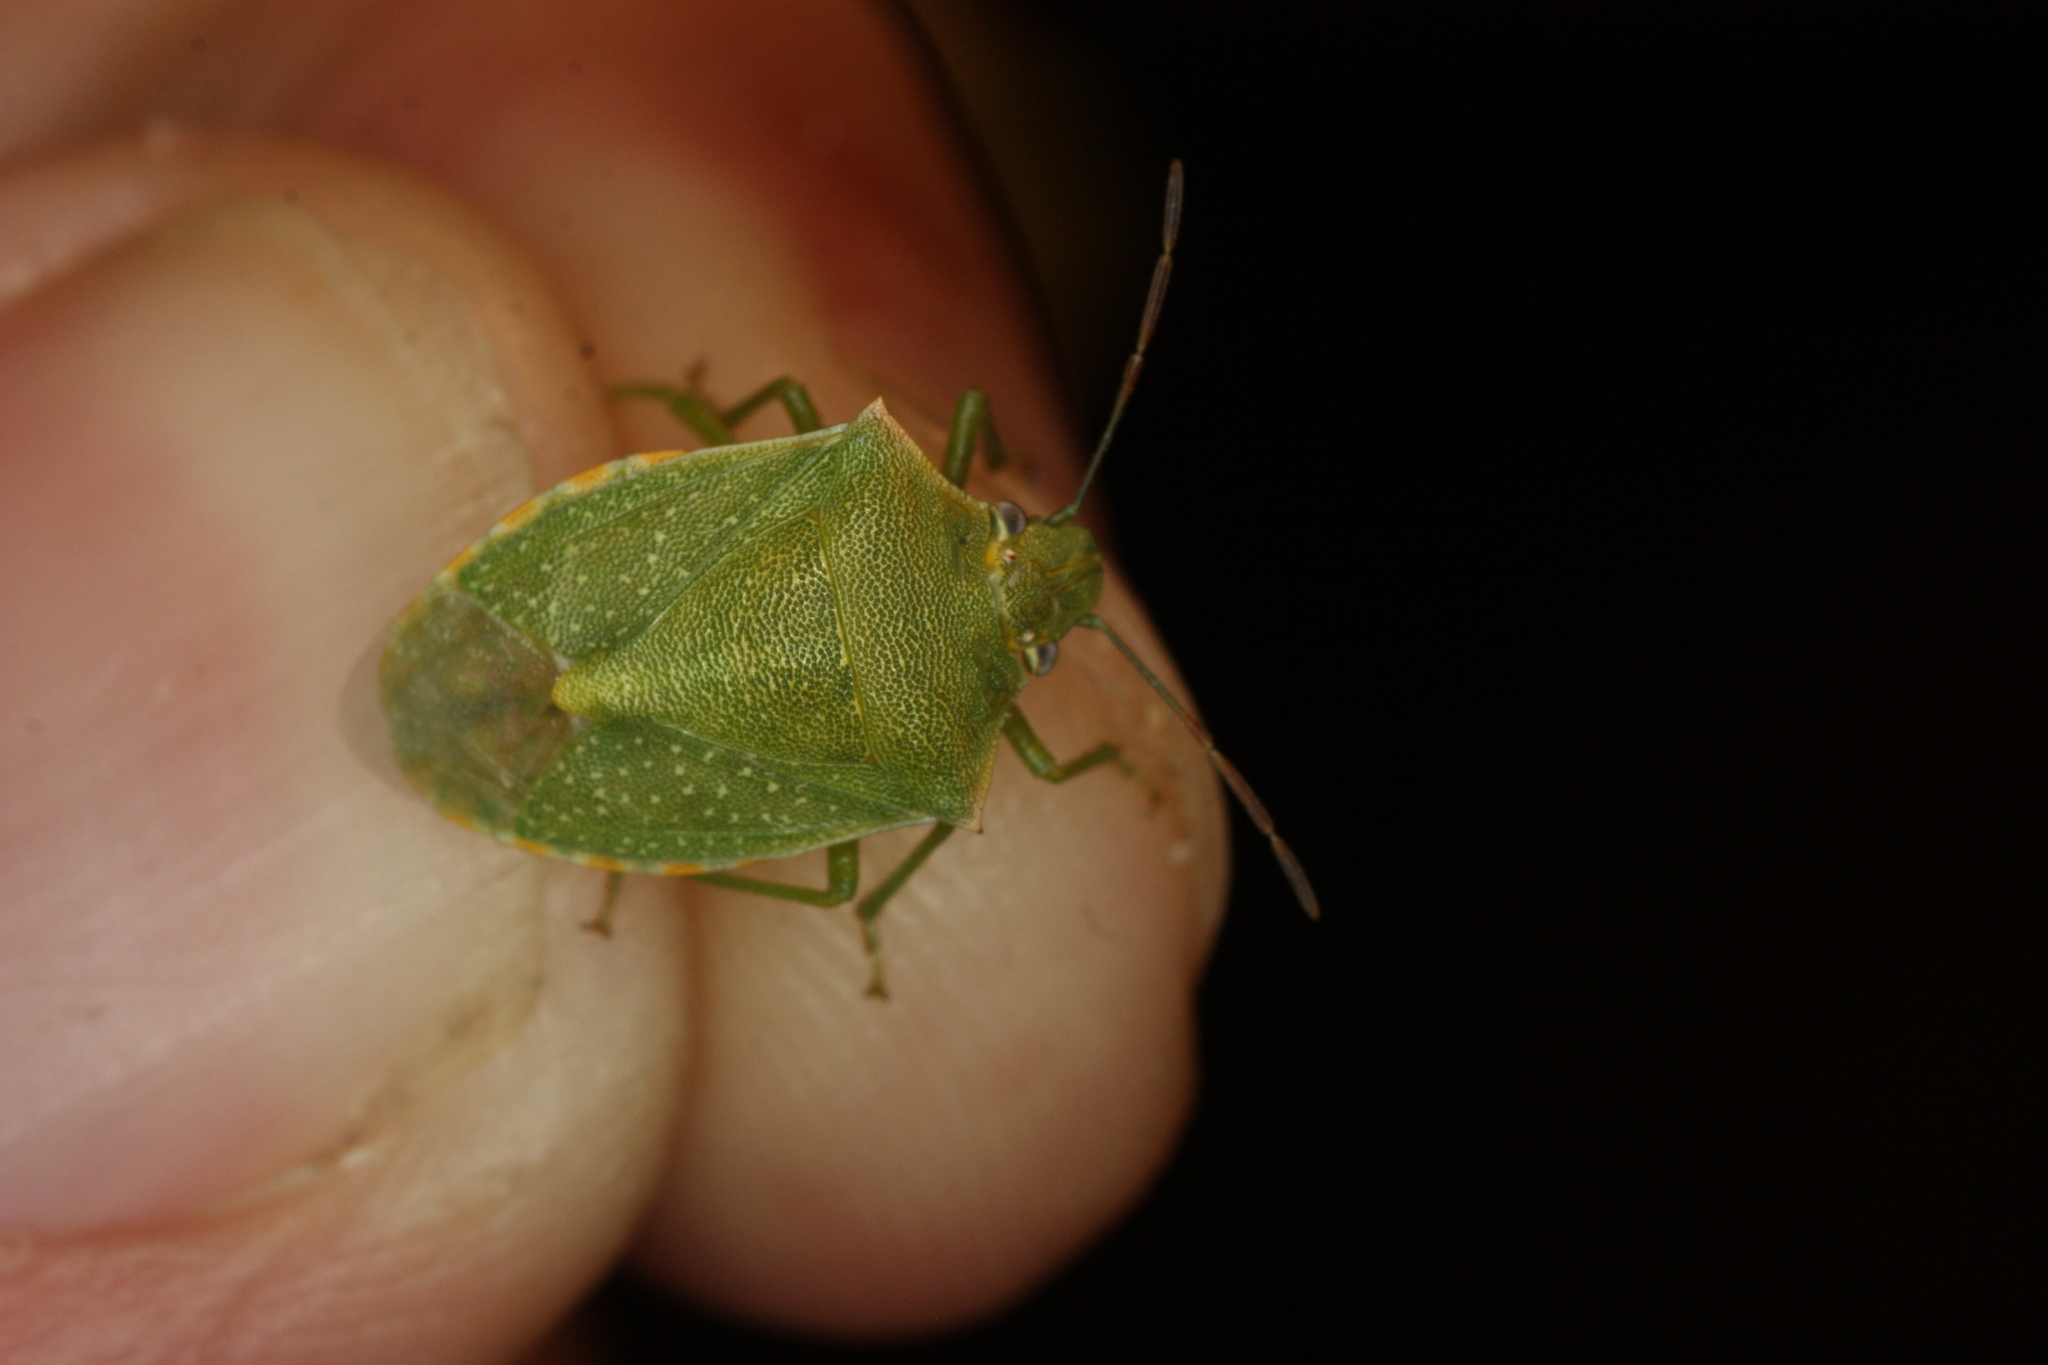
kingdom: Animalia
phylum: Arthropoda
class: Insecta
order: Hemiptera
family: Pentatomidae
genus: Thyanta
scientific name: Thyanta custator
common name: Stink bug
